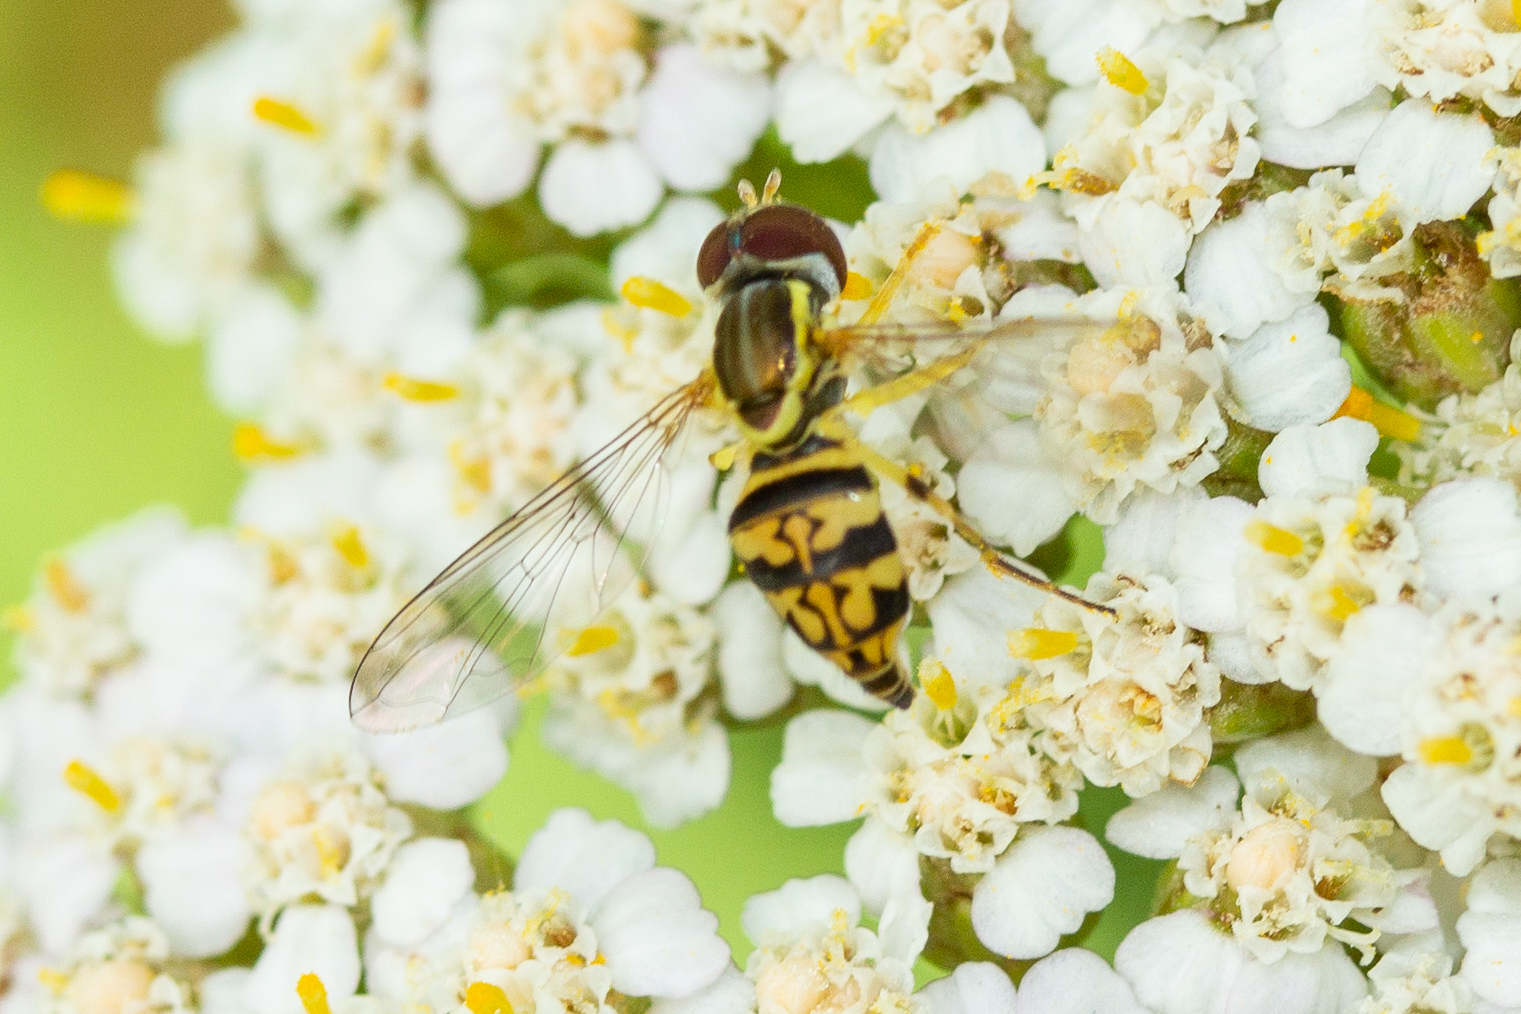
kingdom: Animalia
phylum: Arthropoda
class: Insecta
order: Diptera
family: Syrphidae
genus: Toxomerus
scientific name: Toxomerus geminatus
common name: Eastern calligrapher
